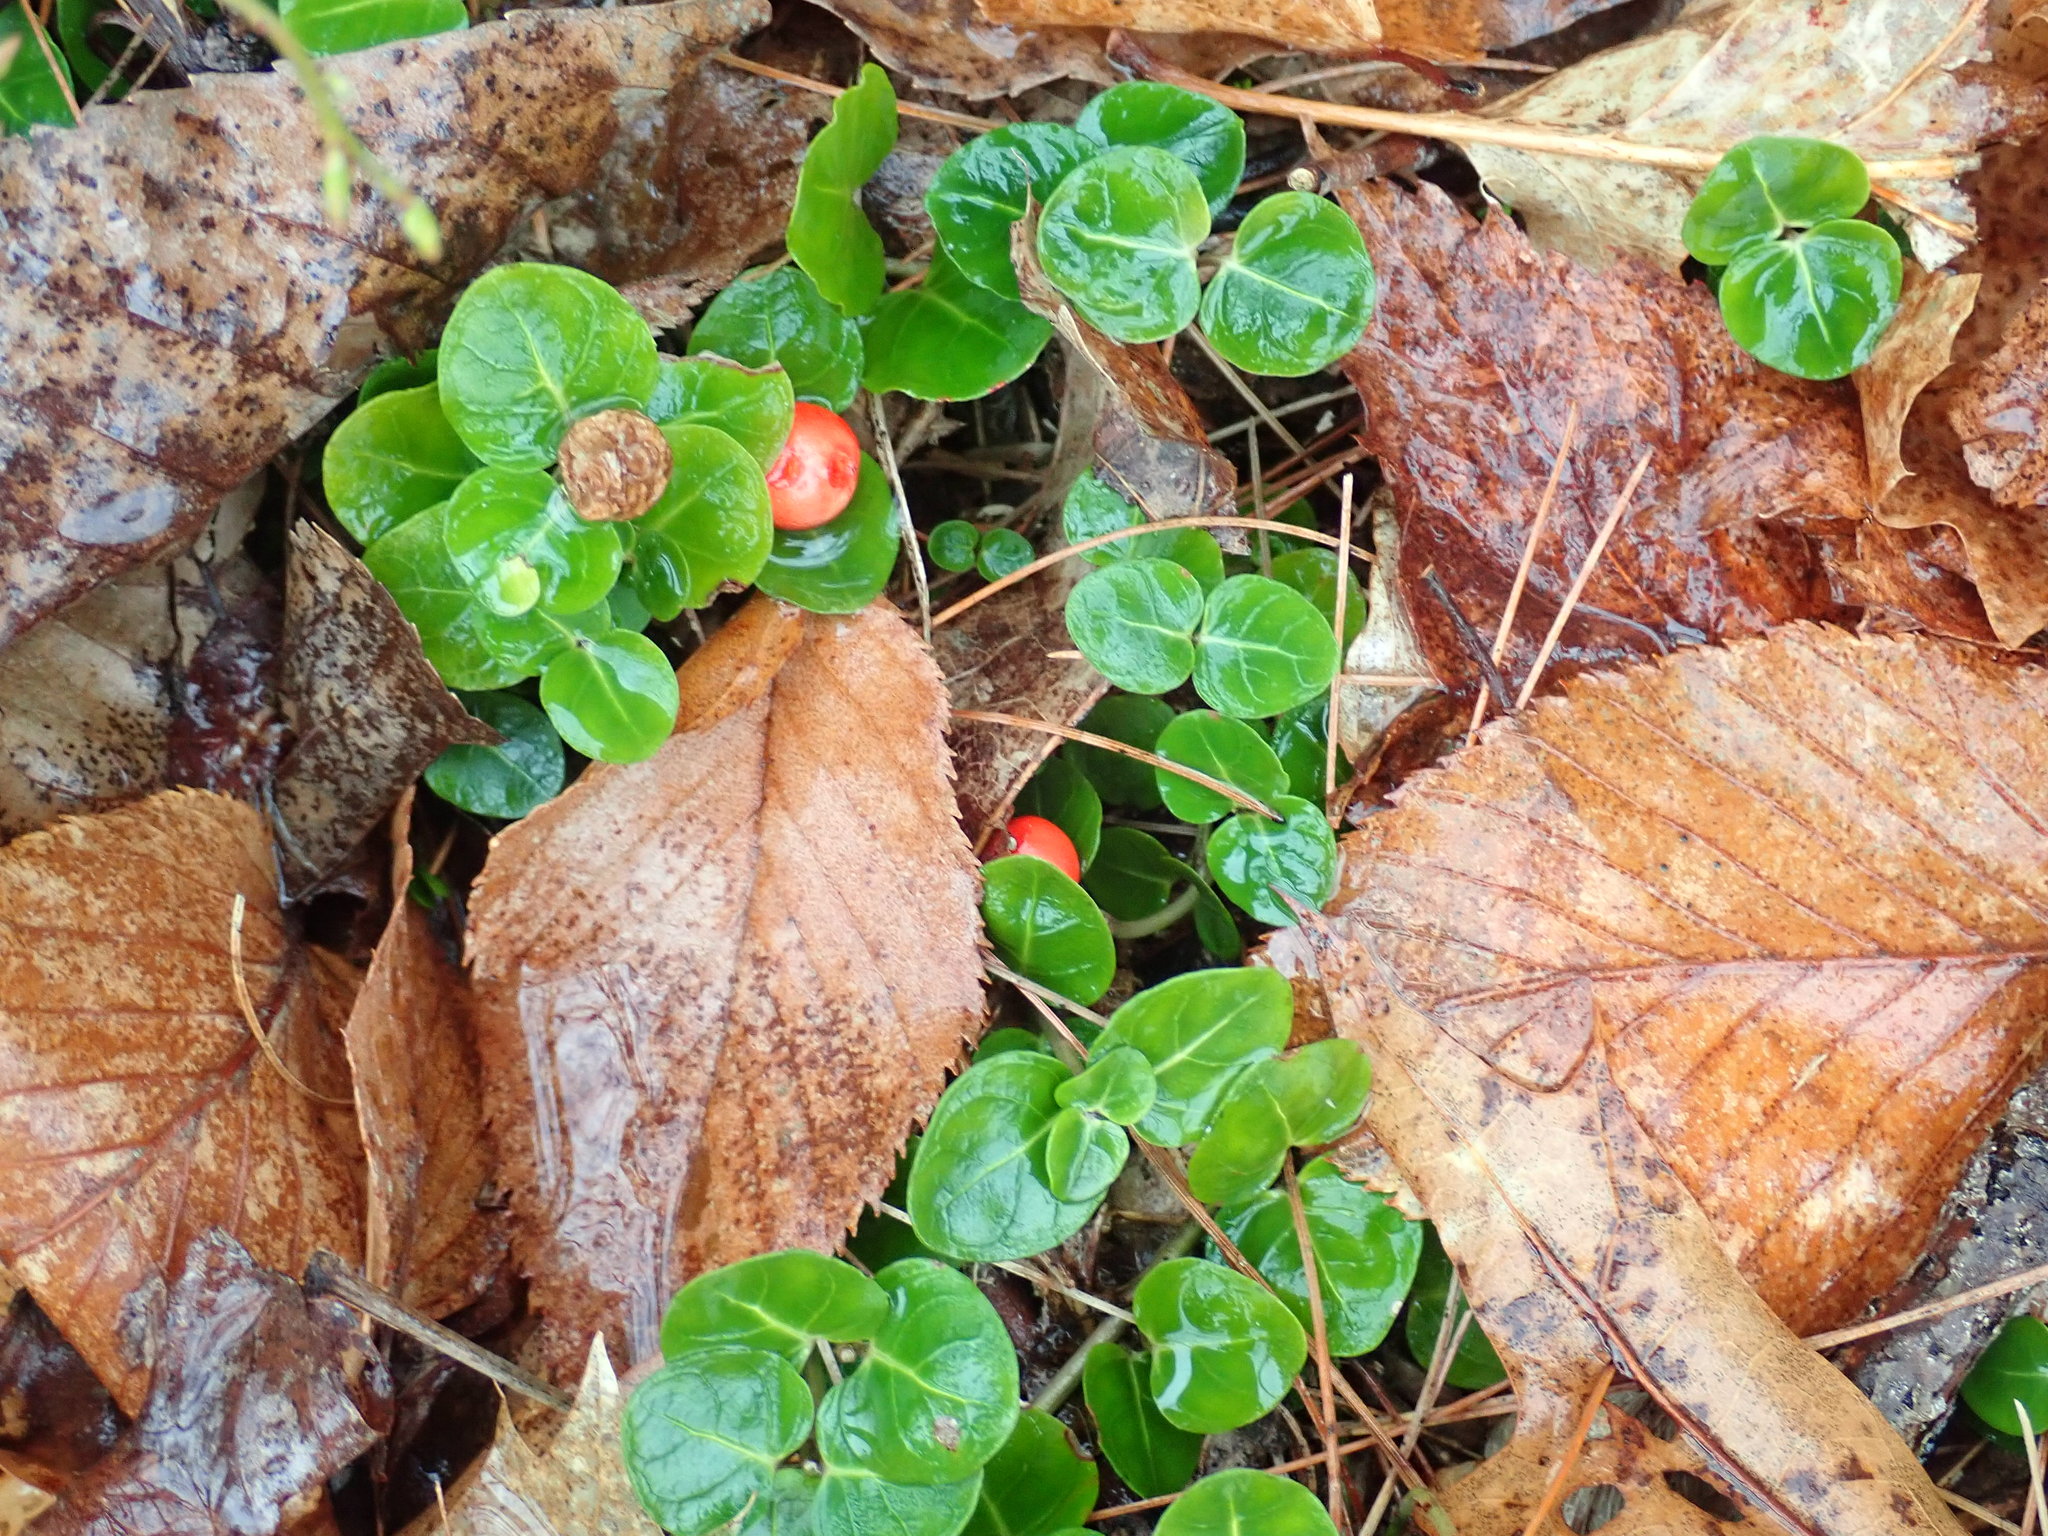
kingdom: Plantae
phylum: Tracheophyta
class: Magnoliopsida
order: Gentianales
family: Rubiaceae
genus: Mitchella
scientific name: Mitchella repens
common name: Partridge-berry
